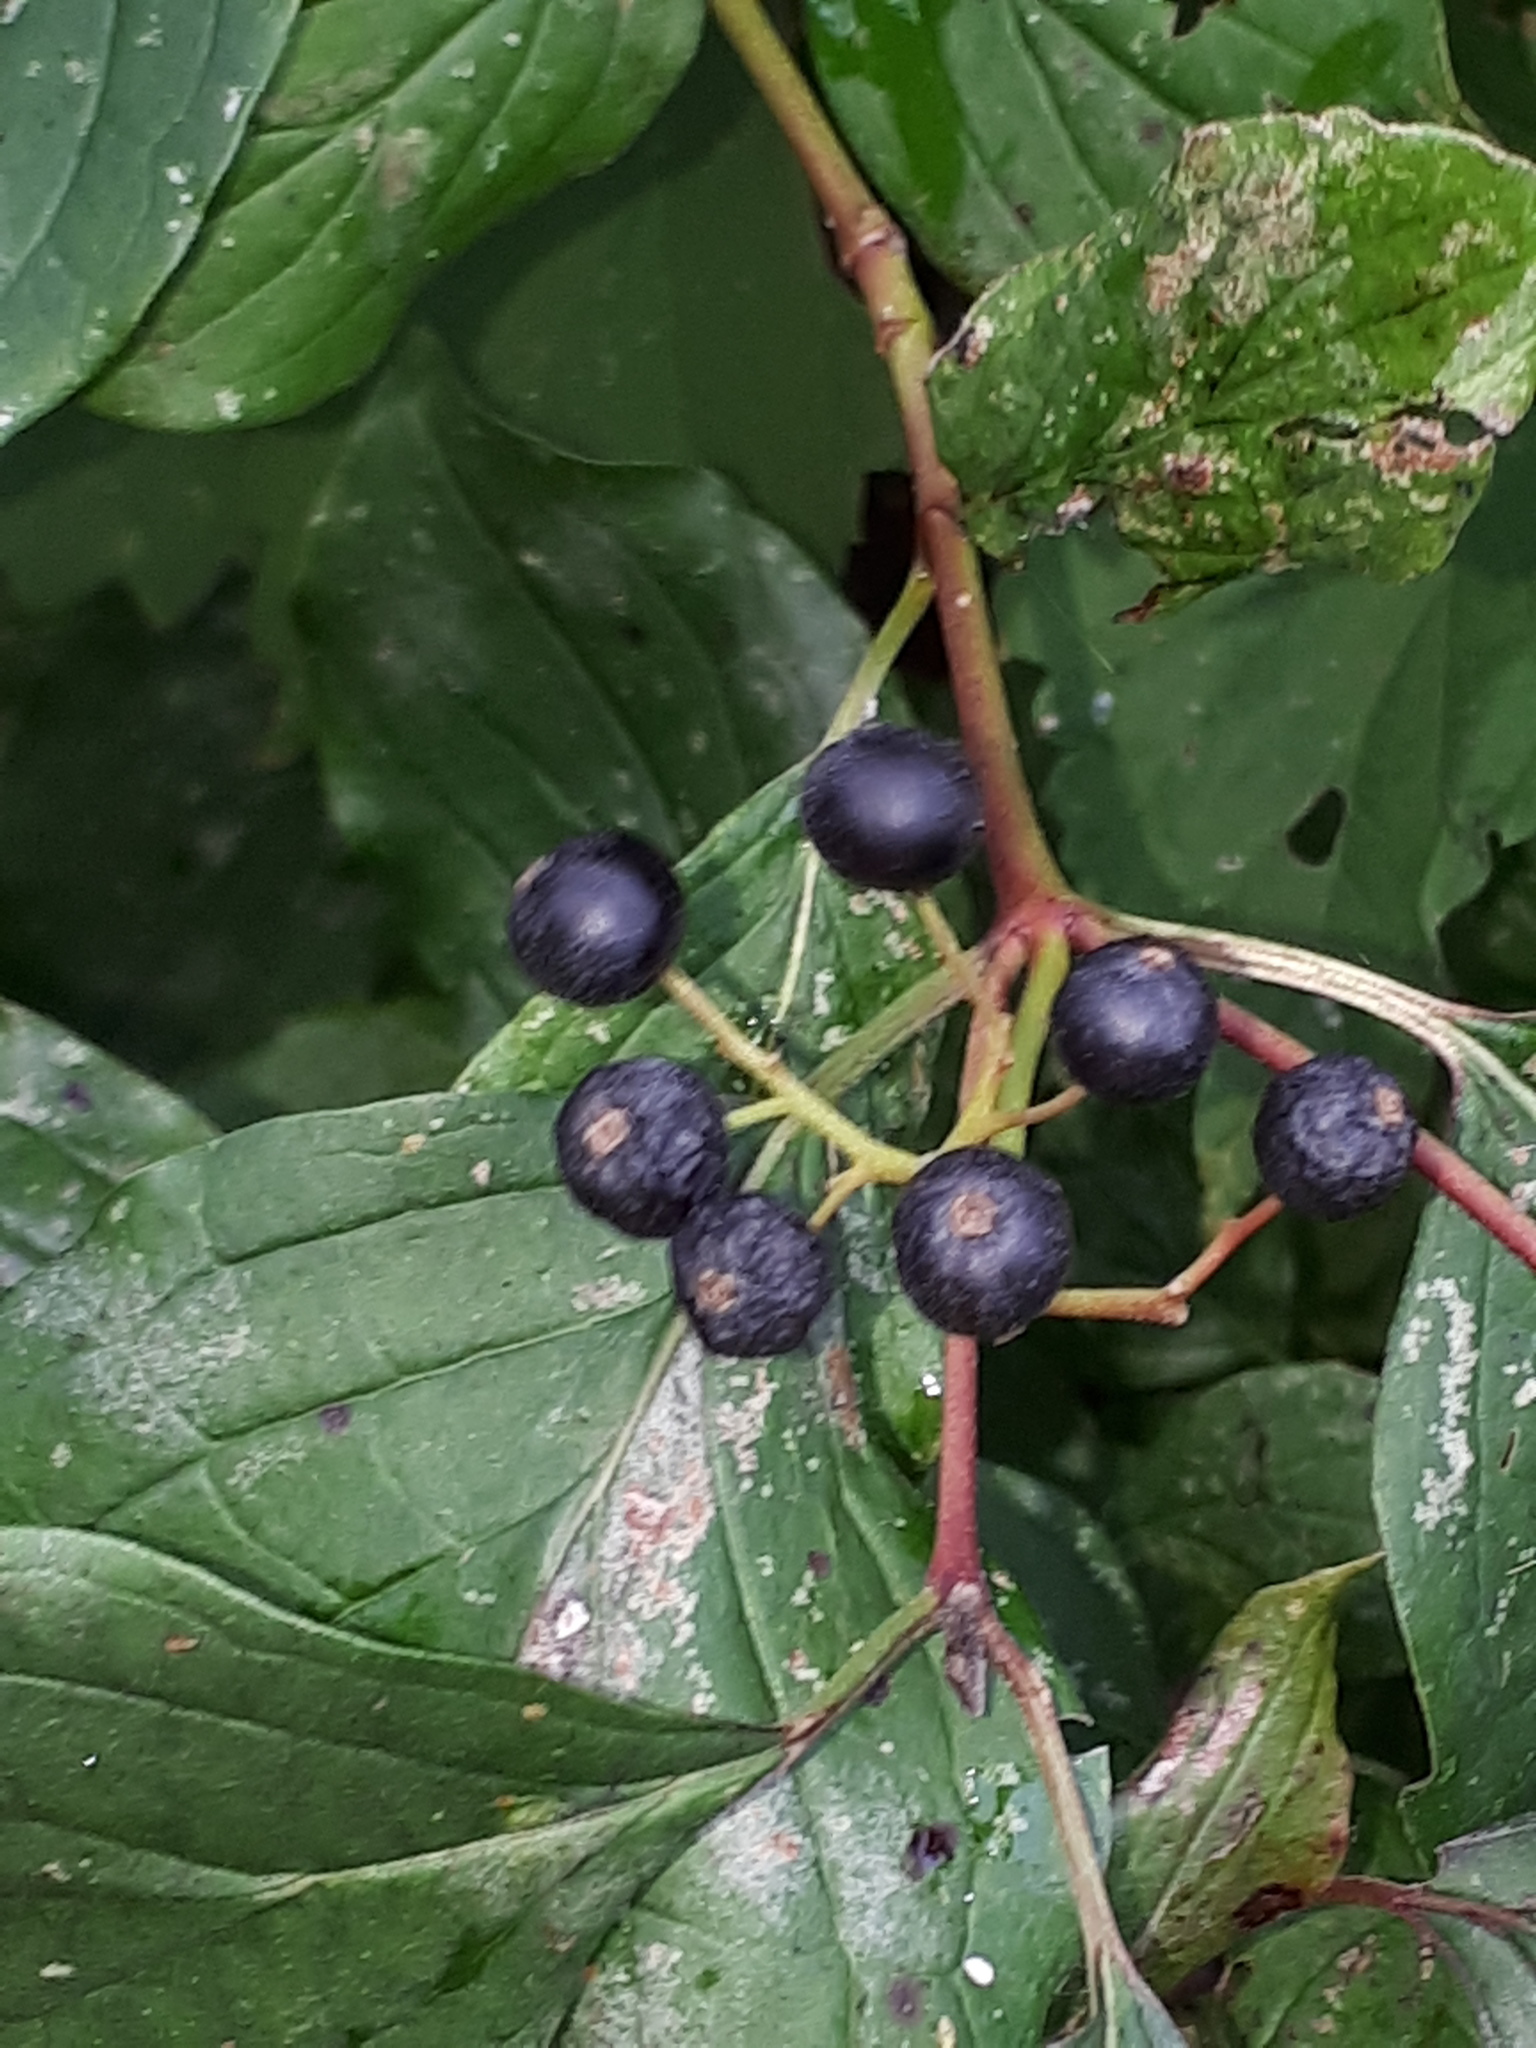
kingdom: Plantae
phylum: Tracheophyta
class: Magnoliopsida
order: Cornales
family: Cornaceae
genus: Cornus
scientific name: Cornus sanguinea
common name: Dogwood
